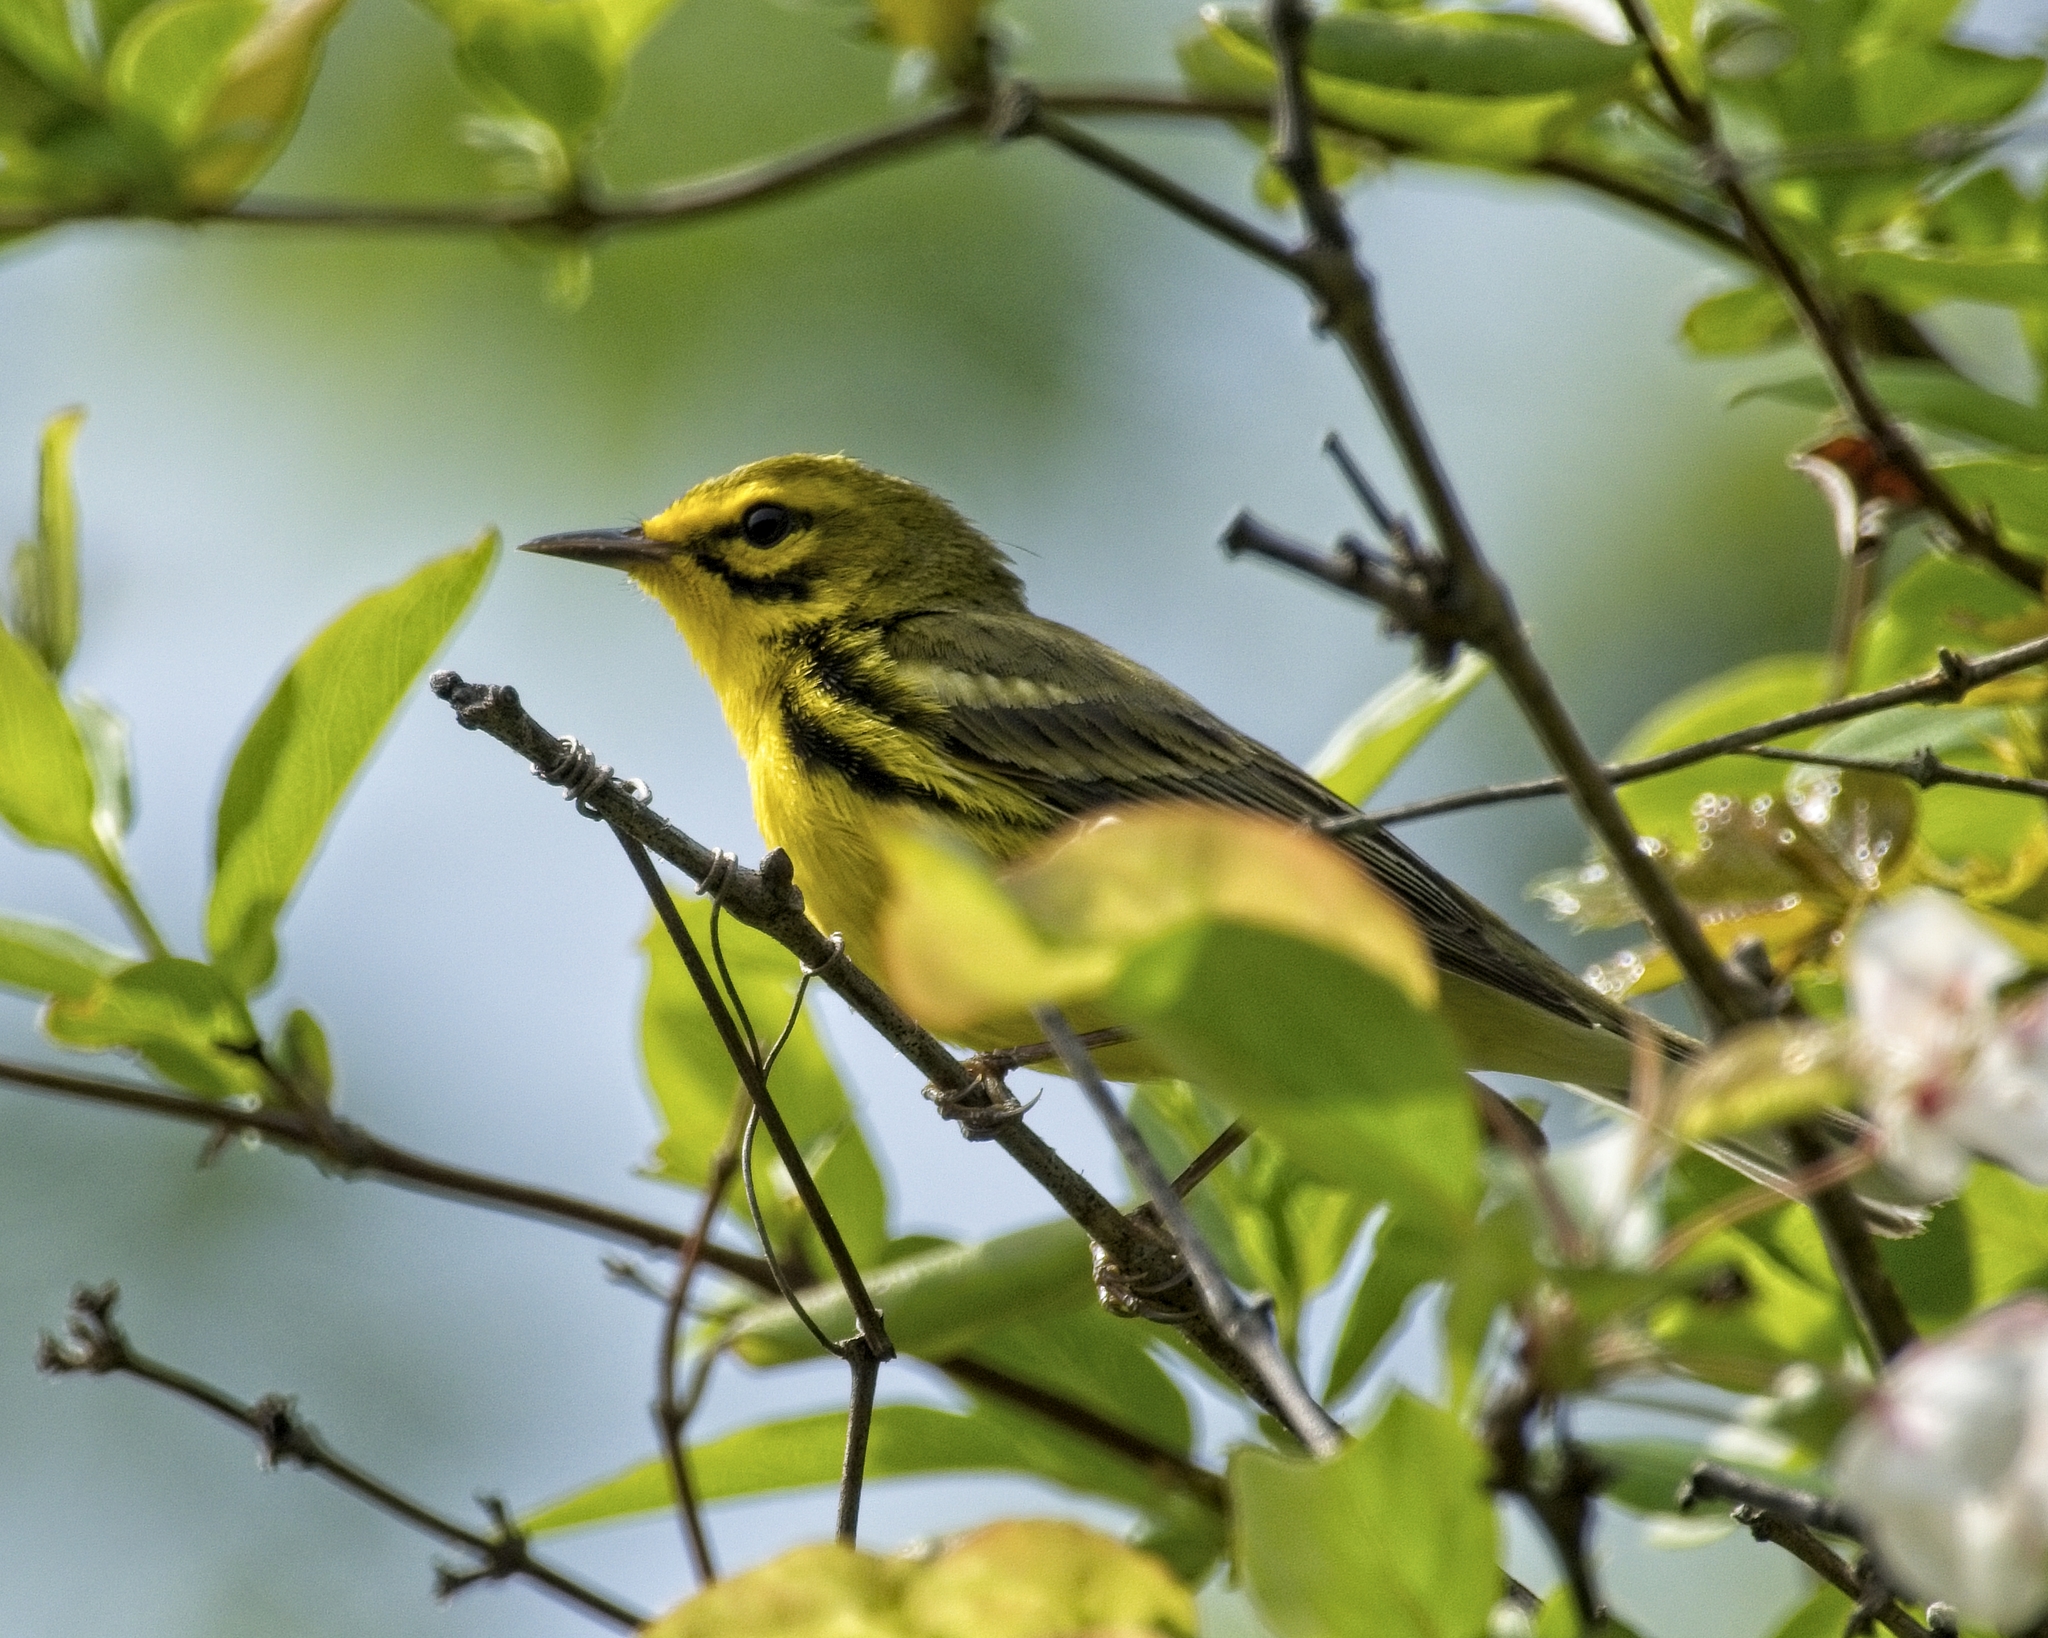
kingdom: Animalia
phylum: Chordata
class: Aves
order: Passeriformes
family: Parulidae
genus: Setophaga
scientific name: Setophaga discolor
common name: Prairie warbler
